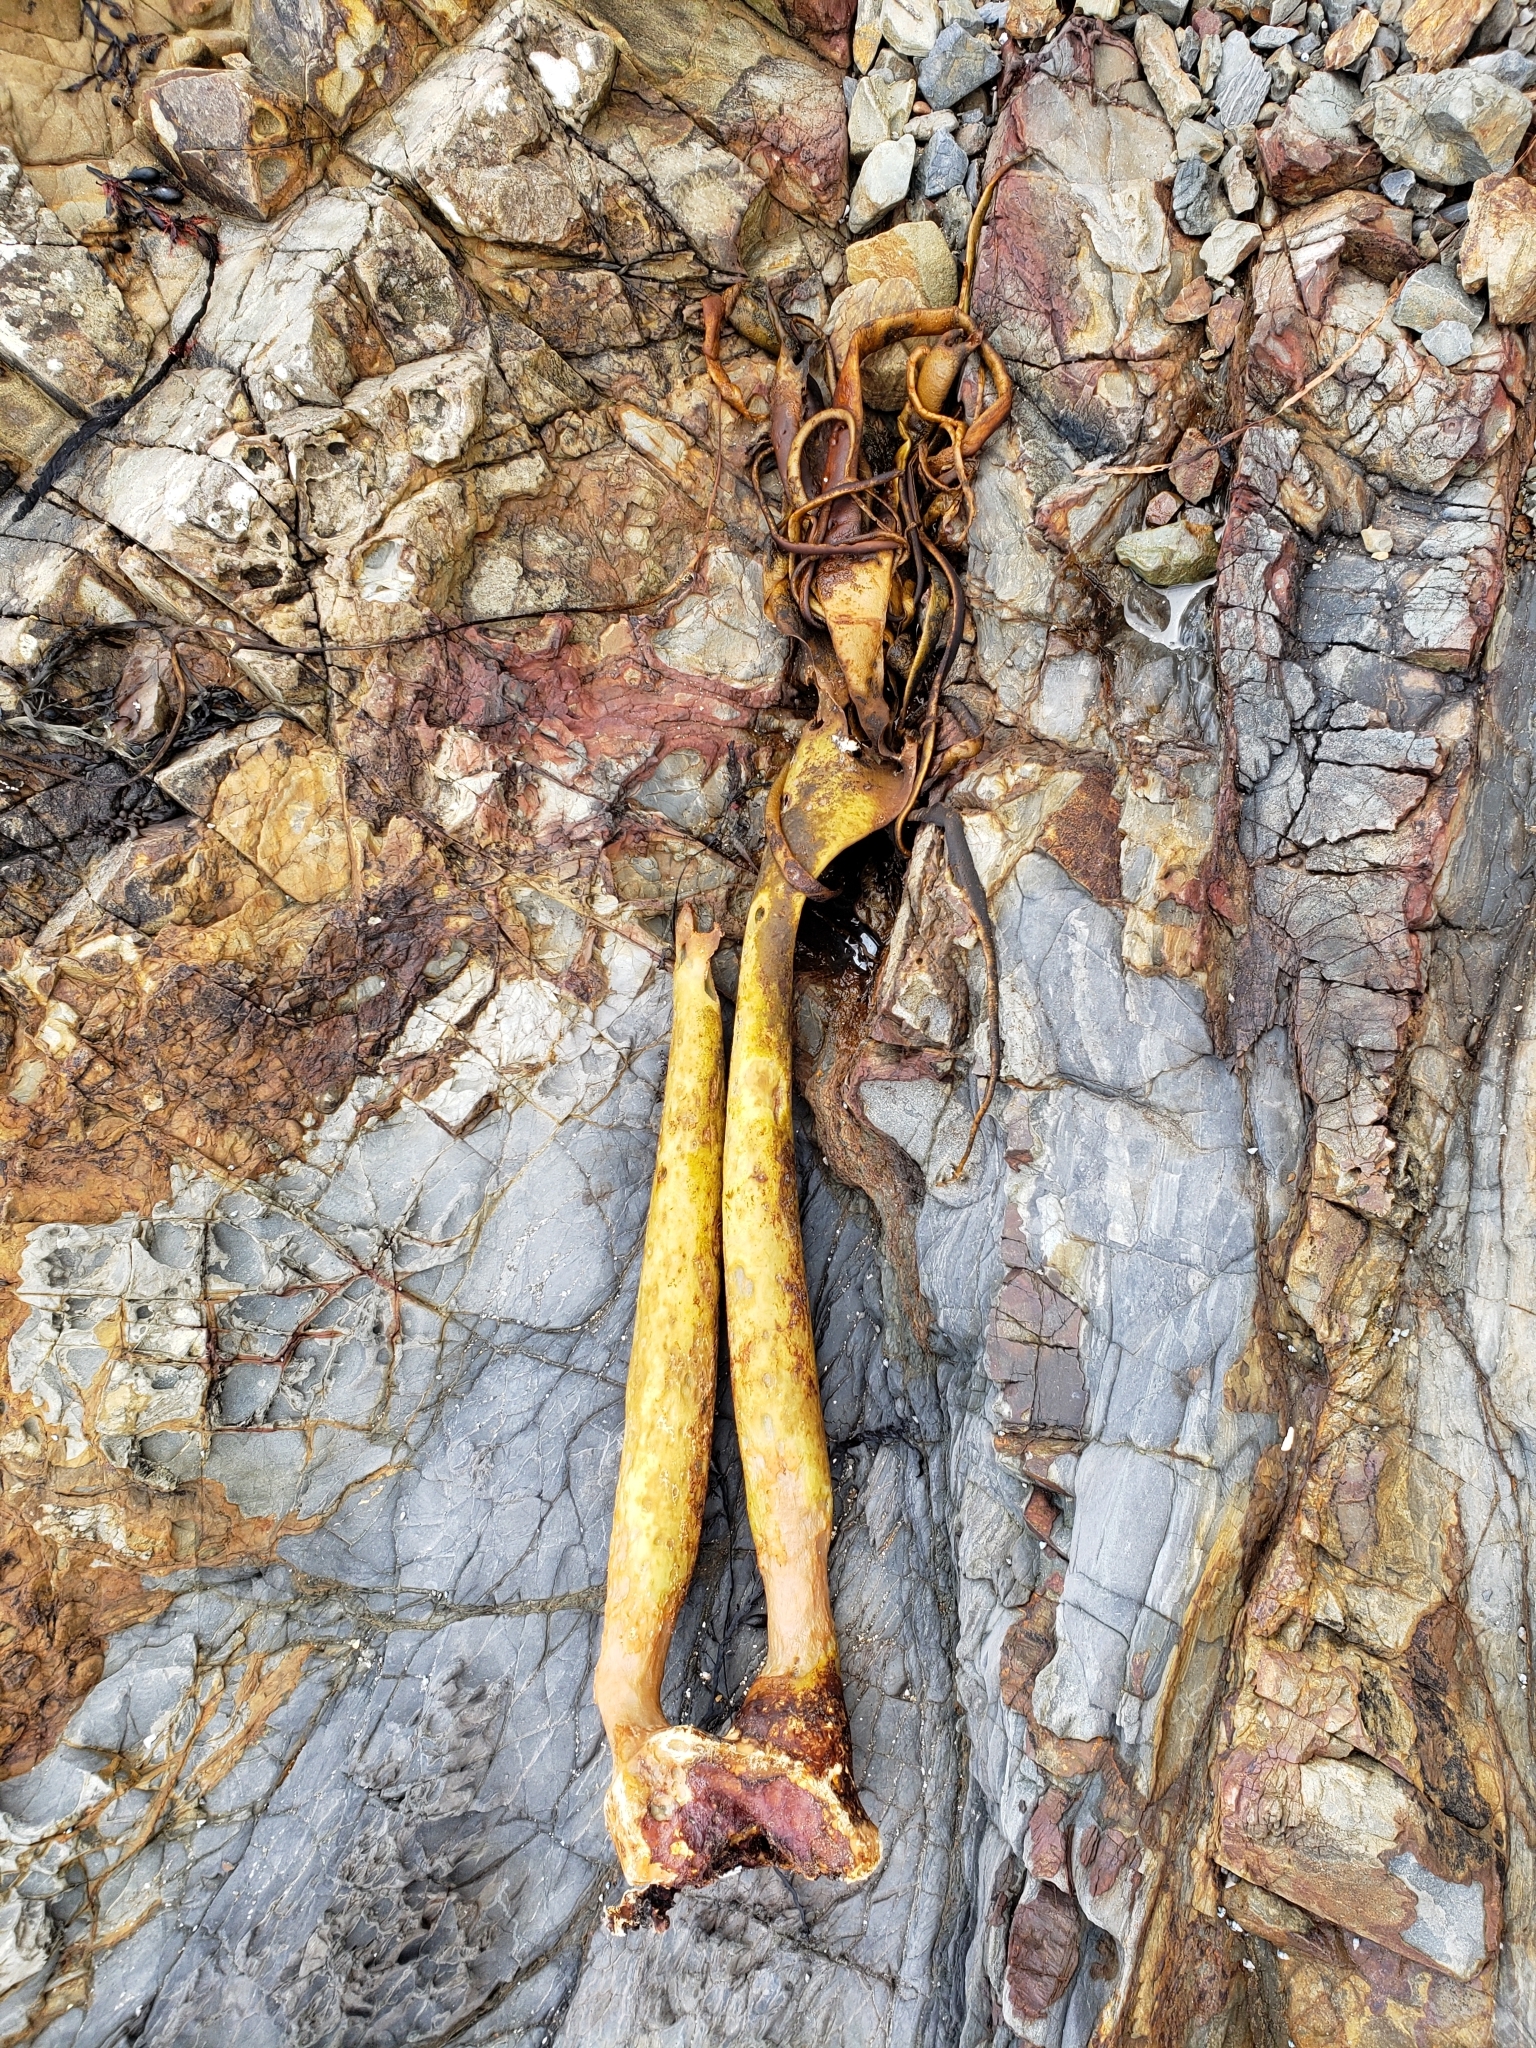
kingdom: Chromista
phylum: Ochrophyta
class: Phaeophyceae
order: Fucales
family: Durvillaeaceae
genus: Durvillaea
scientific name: Durvillaea antarctica
